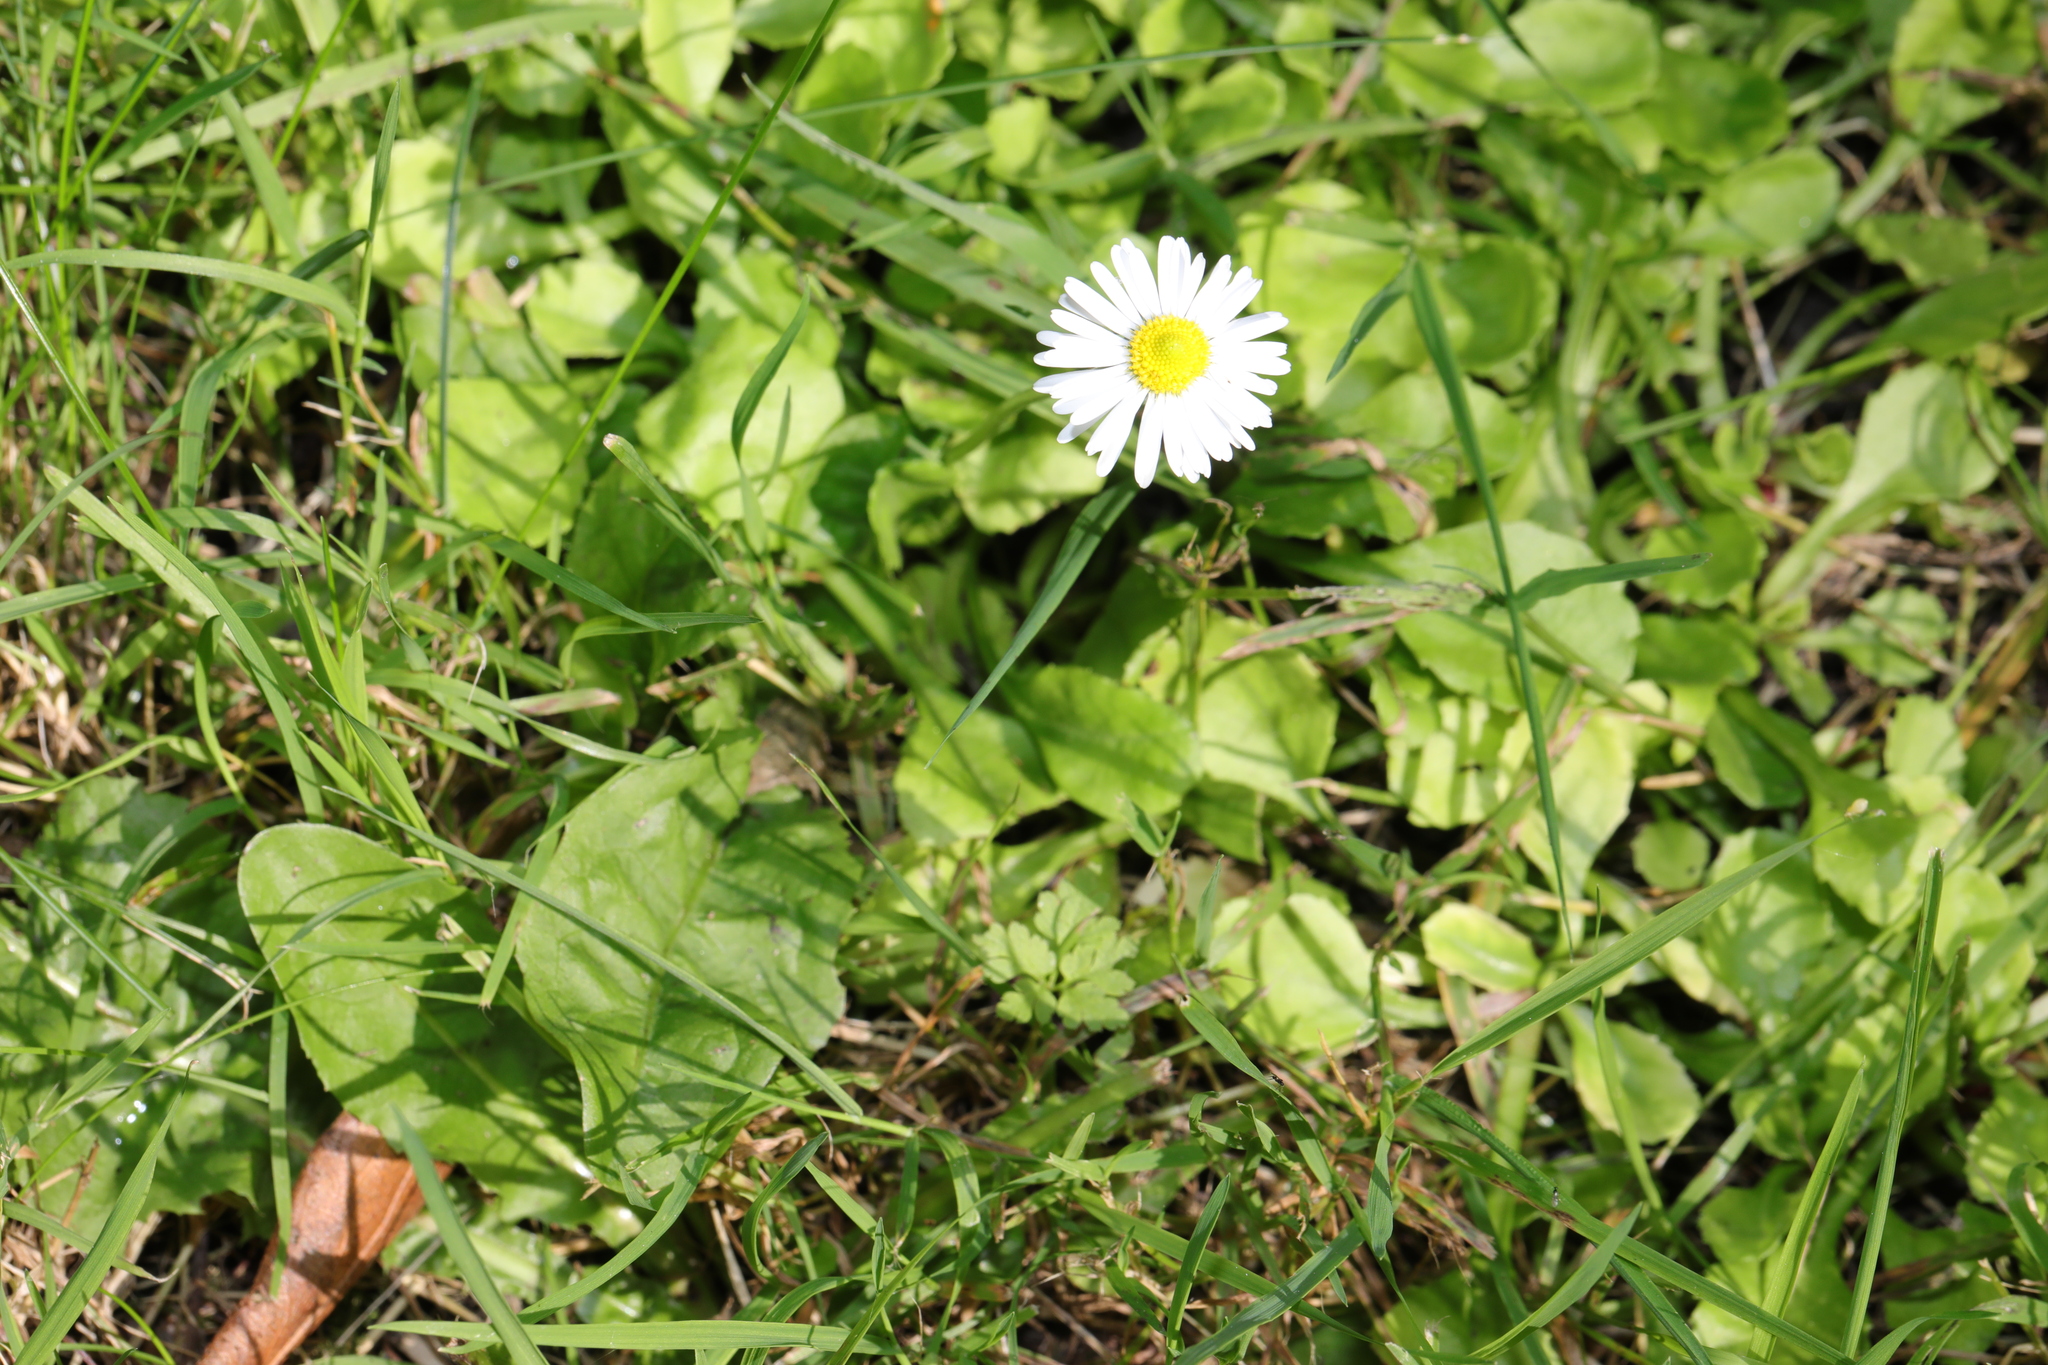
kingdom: Plantae
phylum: Tracheophyta
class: Magnoliopsida
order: Asterales
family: Asteraceae
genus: Bellis
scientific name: Bellis perennis
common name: Lawndaisy
